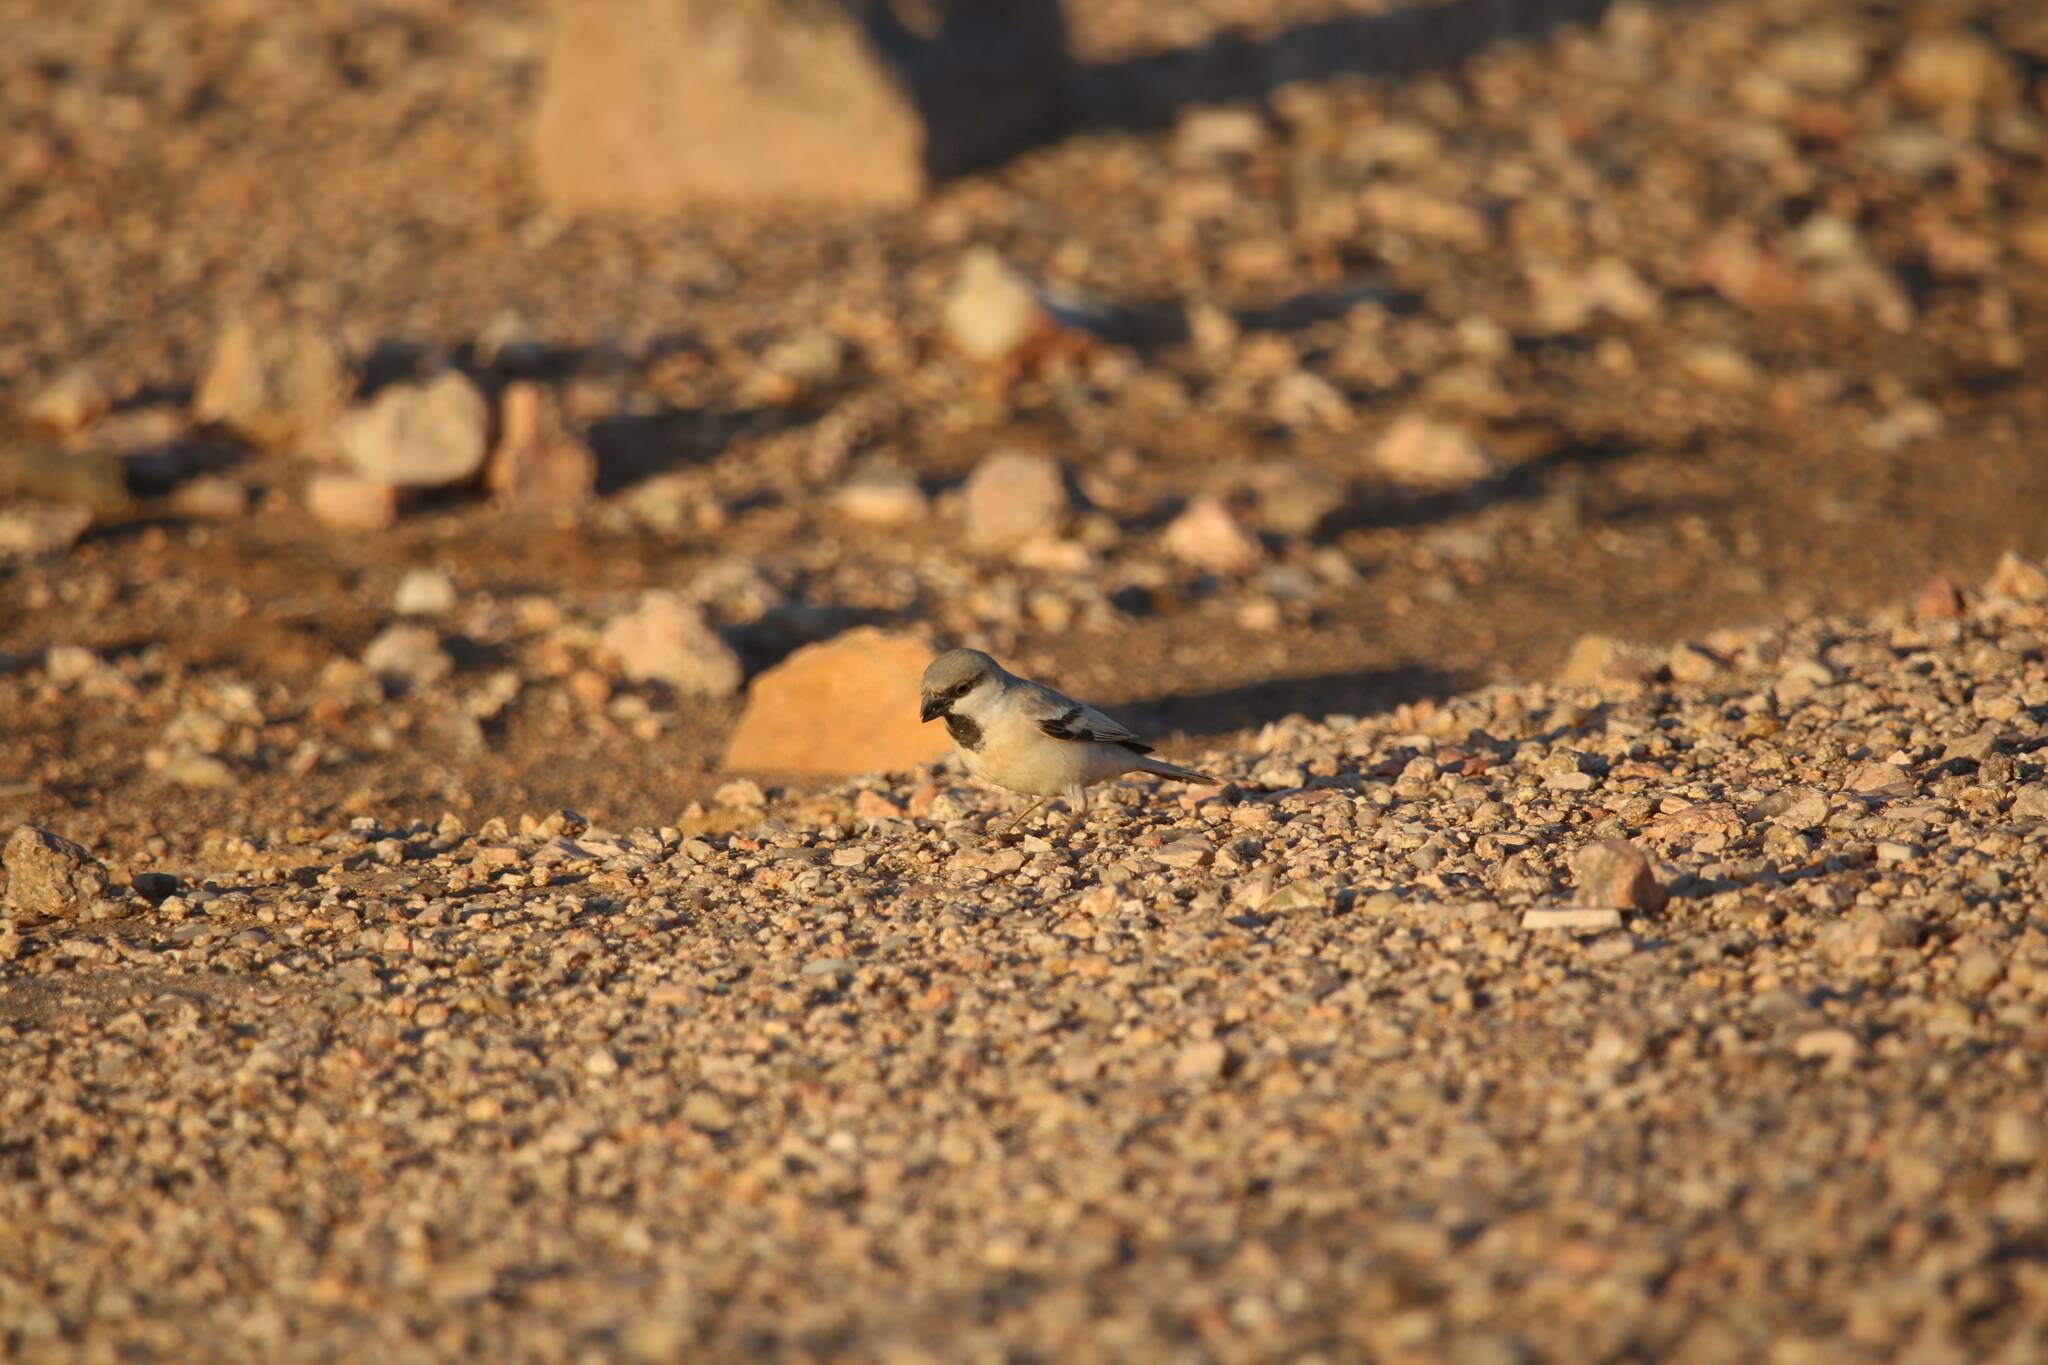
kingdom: Animalia
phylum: Chordata
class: Aves
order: Passeriformes
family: Passeridae
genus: Passer
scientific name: Passer simplex
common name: Desert sparrow
